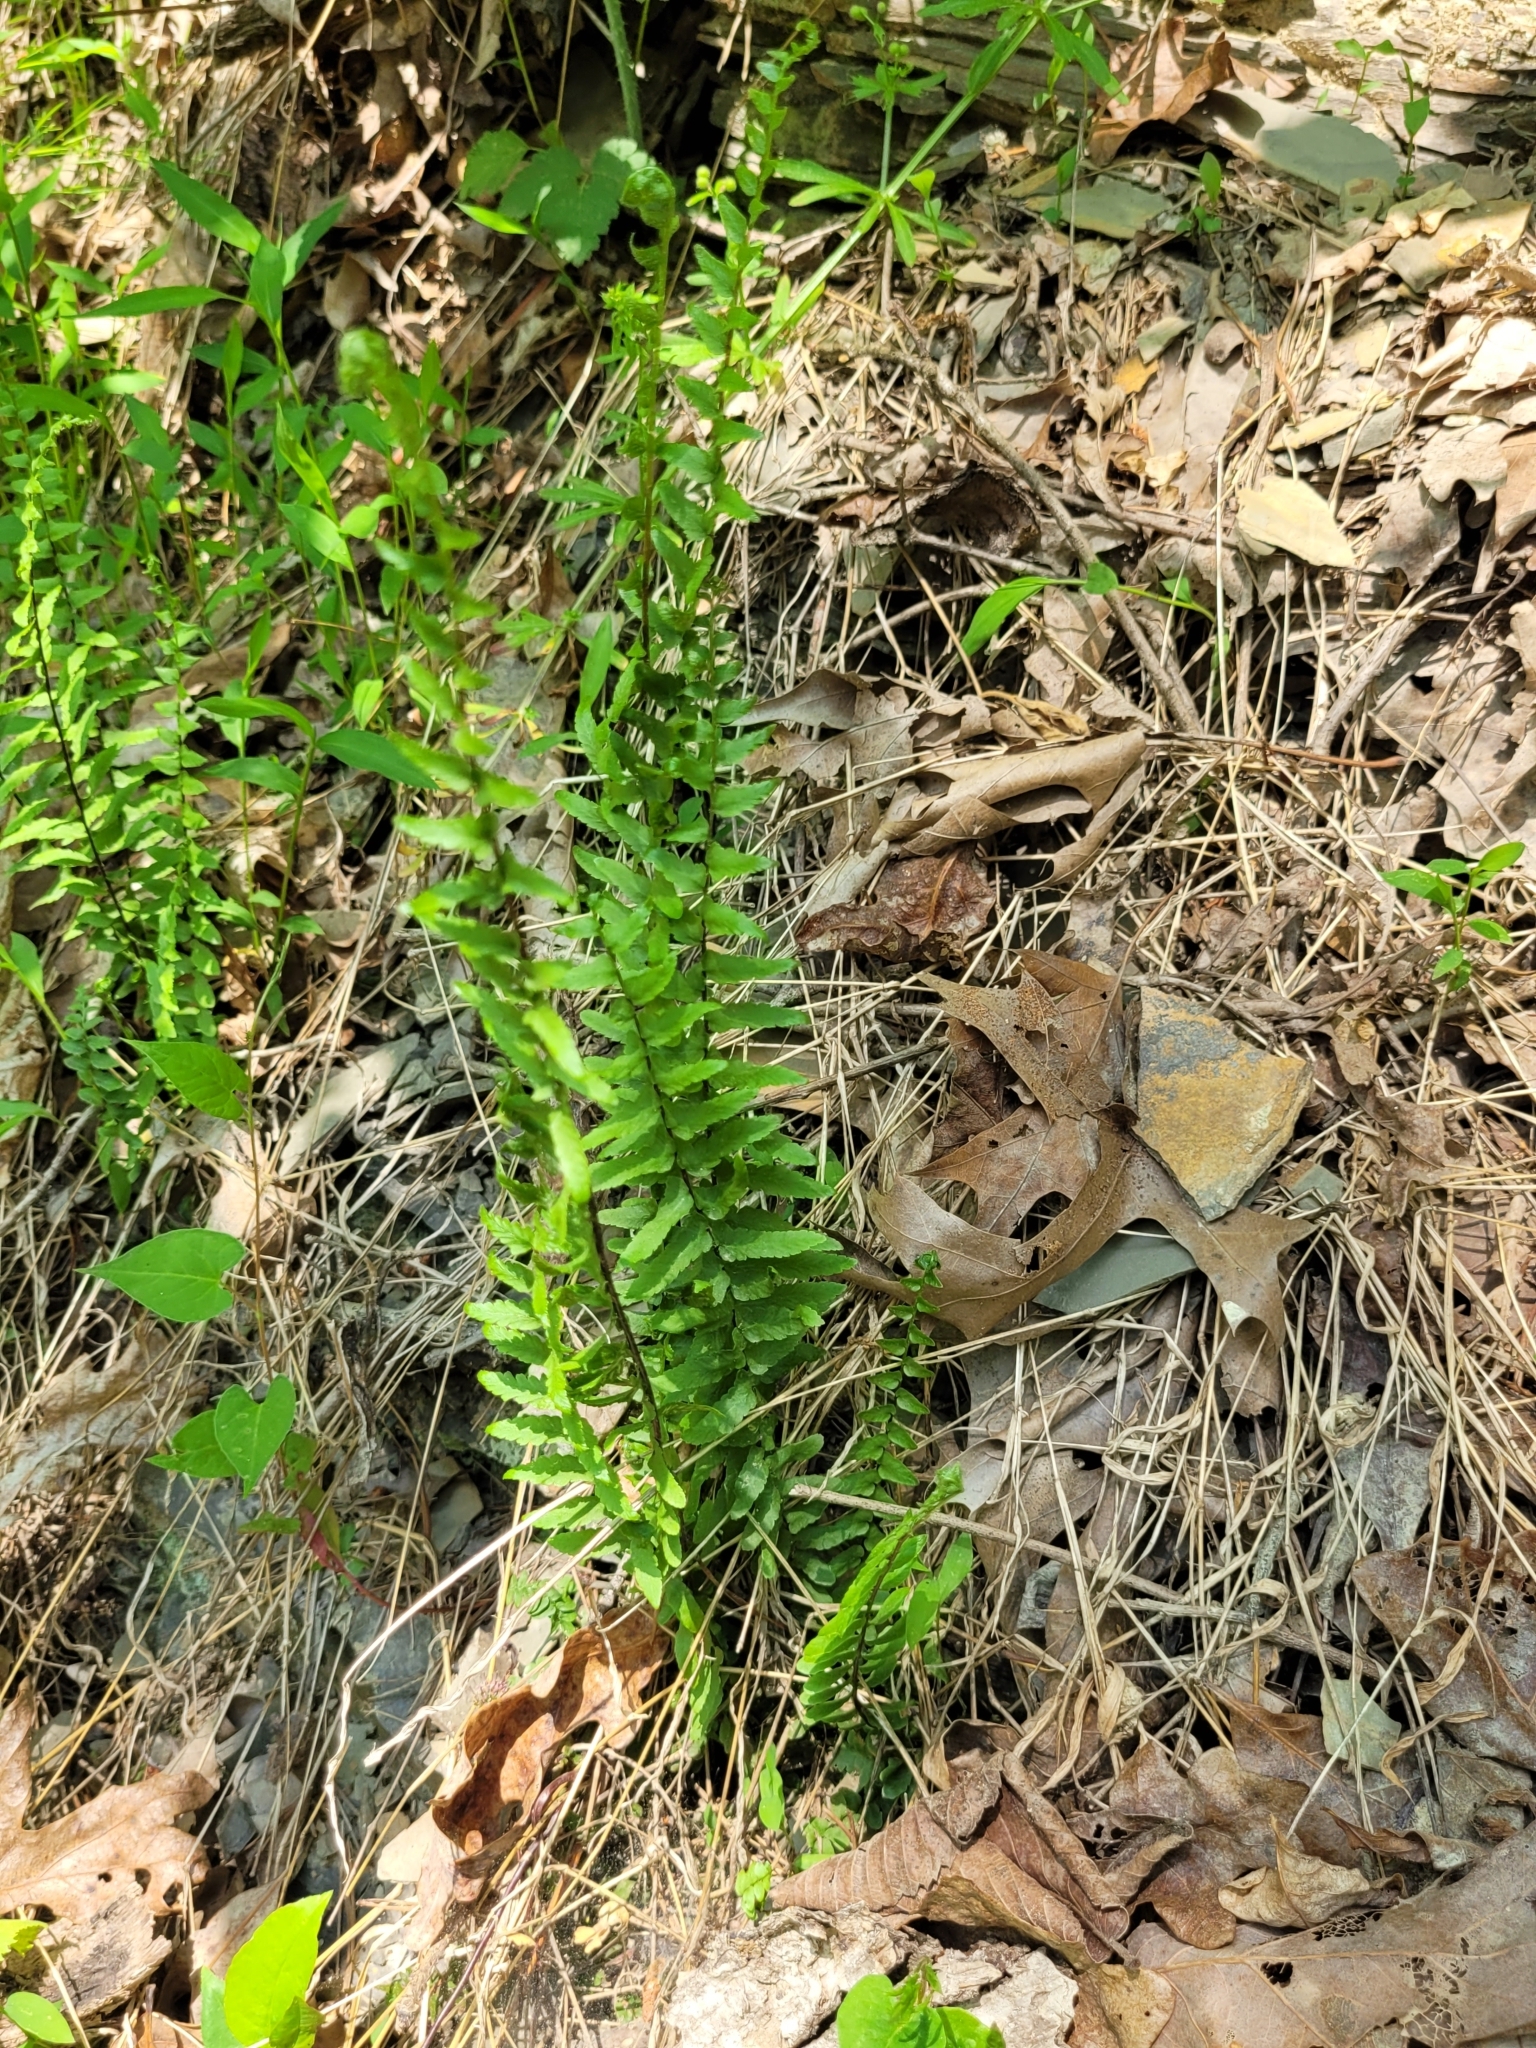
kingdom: Plantae
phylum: Tracheophyta
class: Polypodiopsida
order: Polypodiales
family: Aspleniaceae
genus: Asplenium
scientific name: Asplenium platyneuron
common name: Ebony spleenwort
